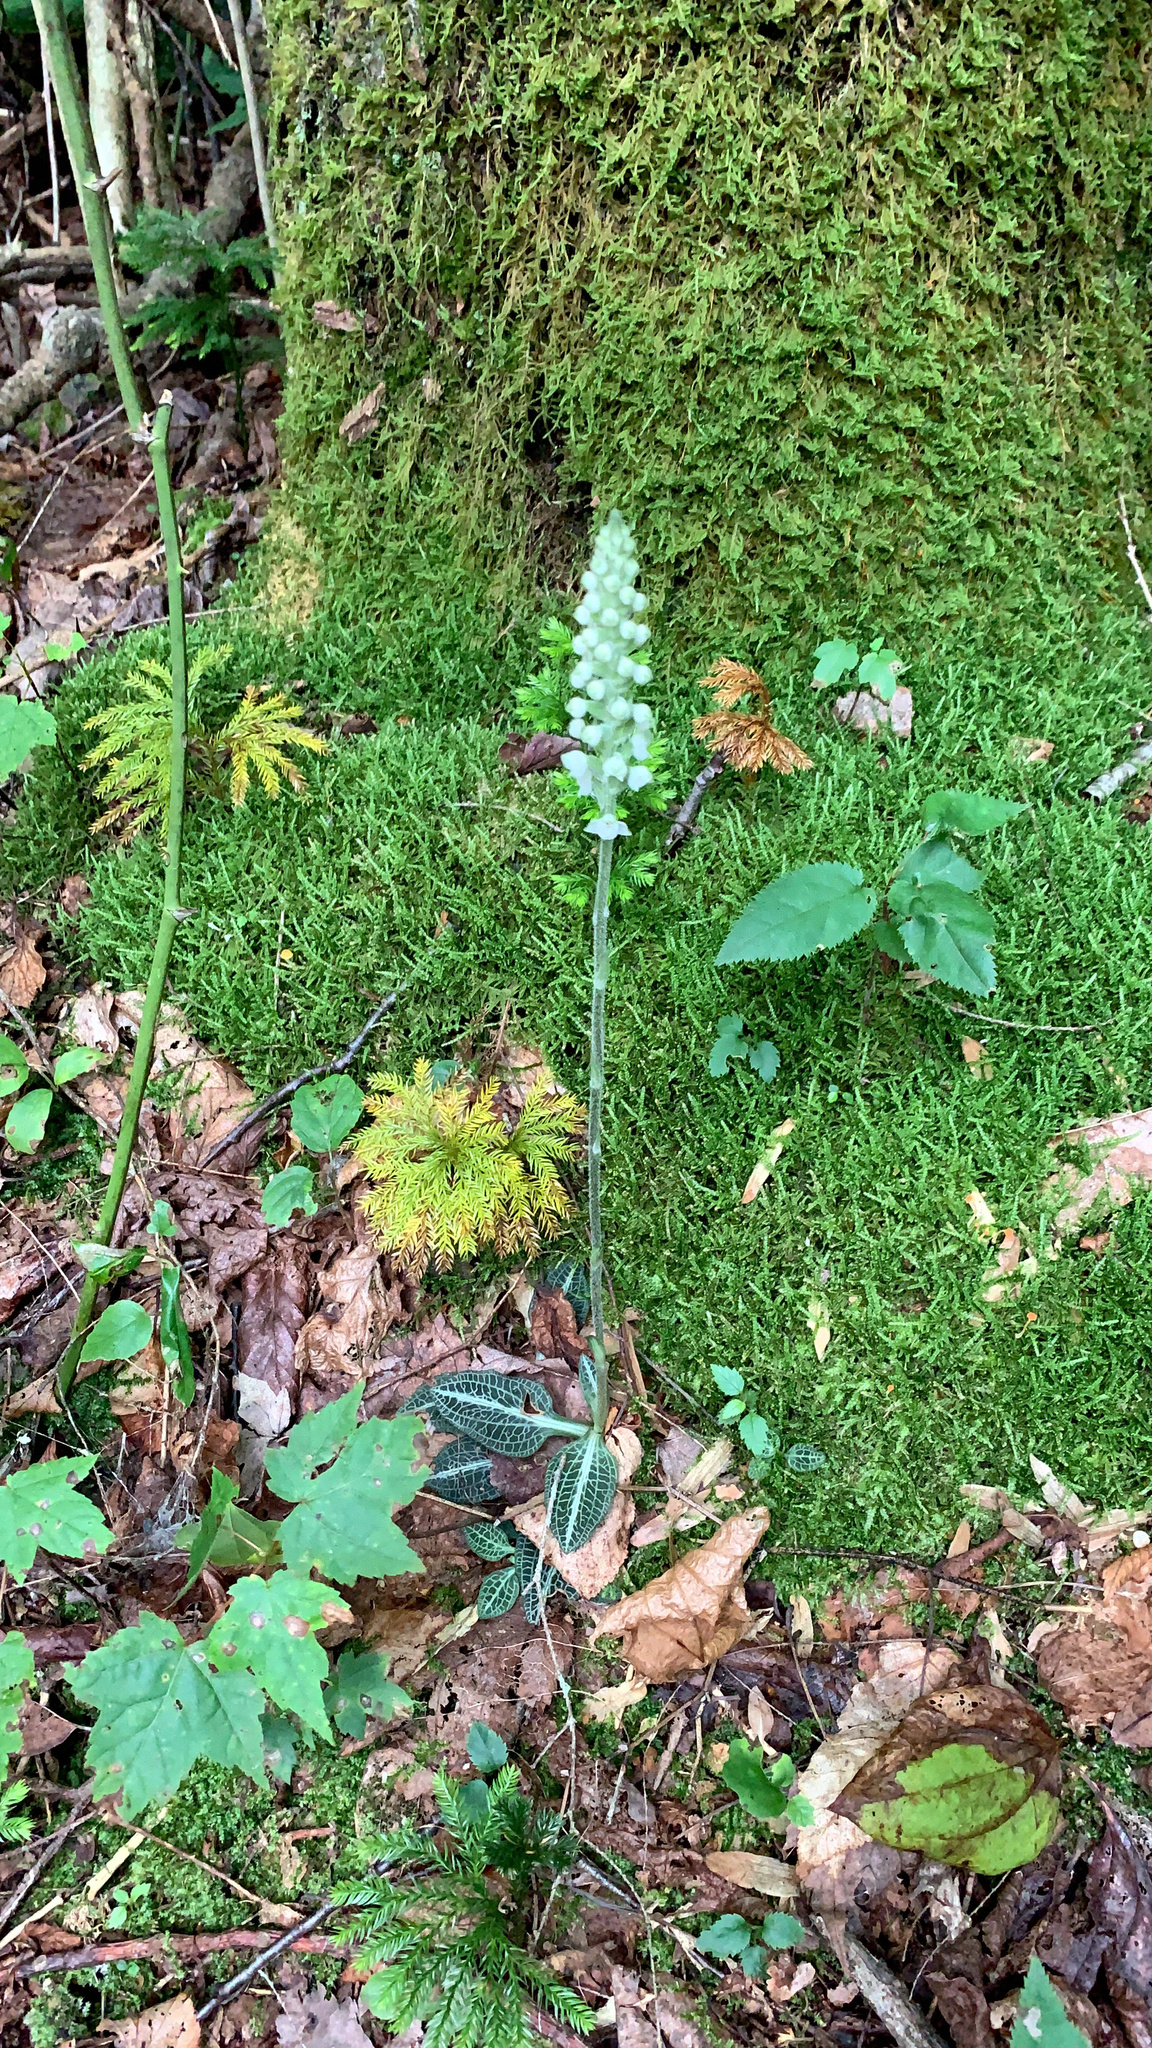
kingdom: Plantae
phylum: Tracheophyta
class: Liliopsida
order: Asparagales
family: Orchidaceae
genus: Goodyera
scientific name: Goodyera pubescens
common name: Downy rattlesnake-plantain
